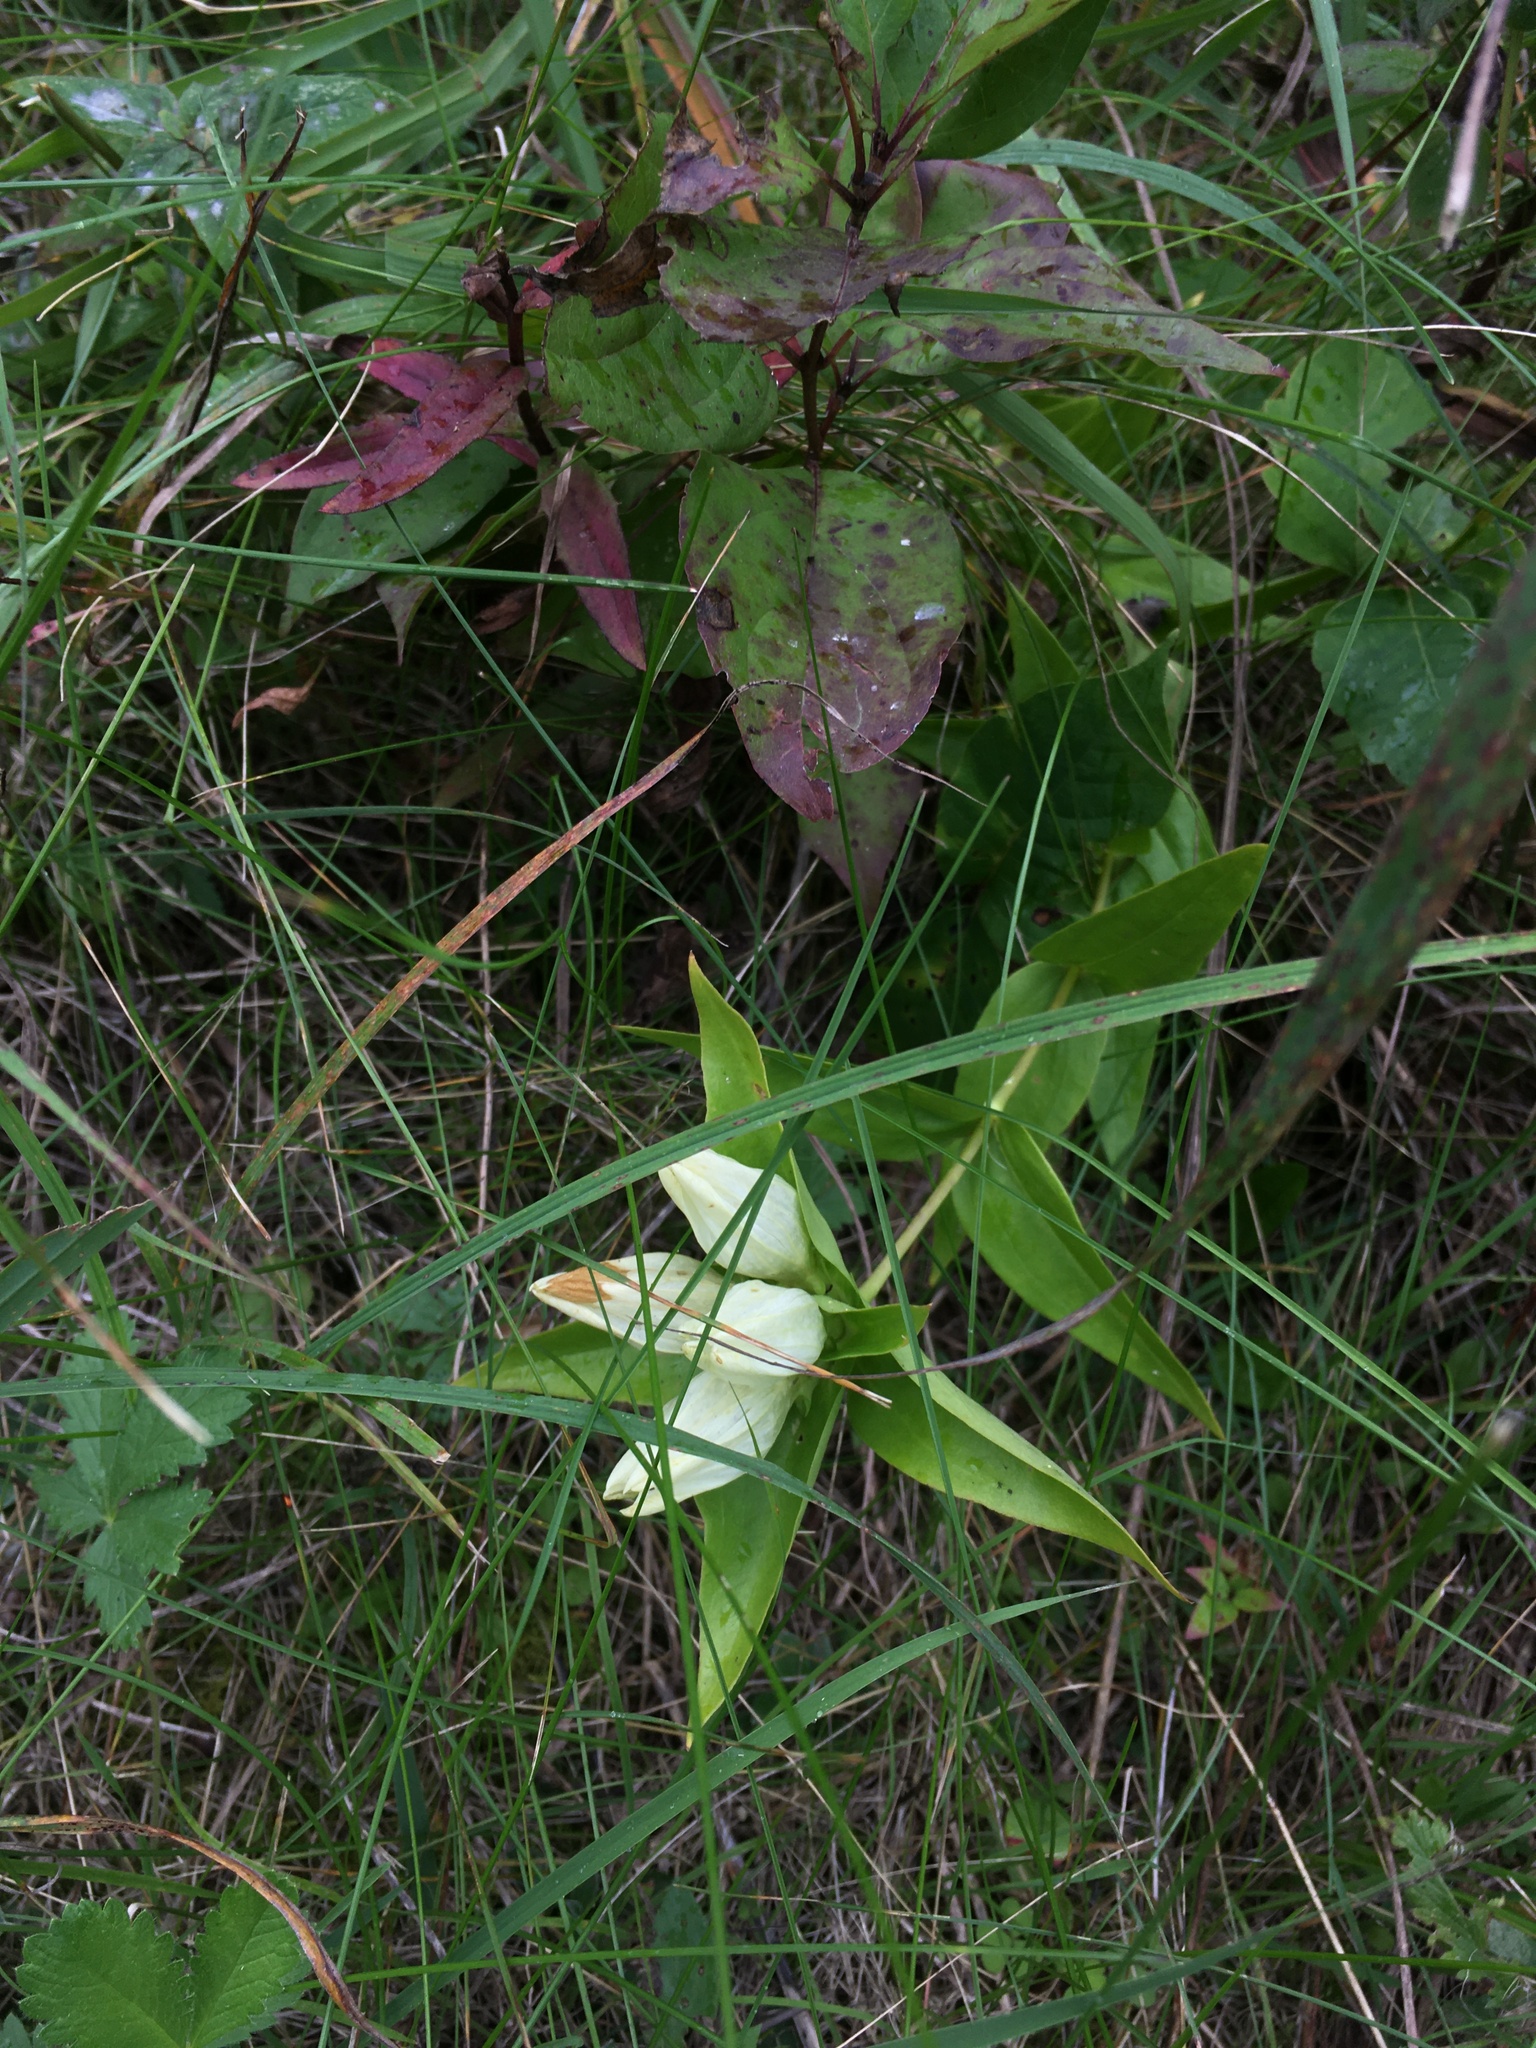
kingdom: Plantae
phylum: Tracheophyta
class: Magnoliopsida
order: Gentianales
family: Gentianaceae
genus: Gentiana
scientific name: Gentiana alba
